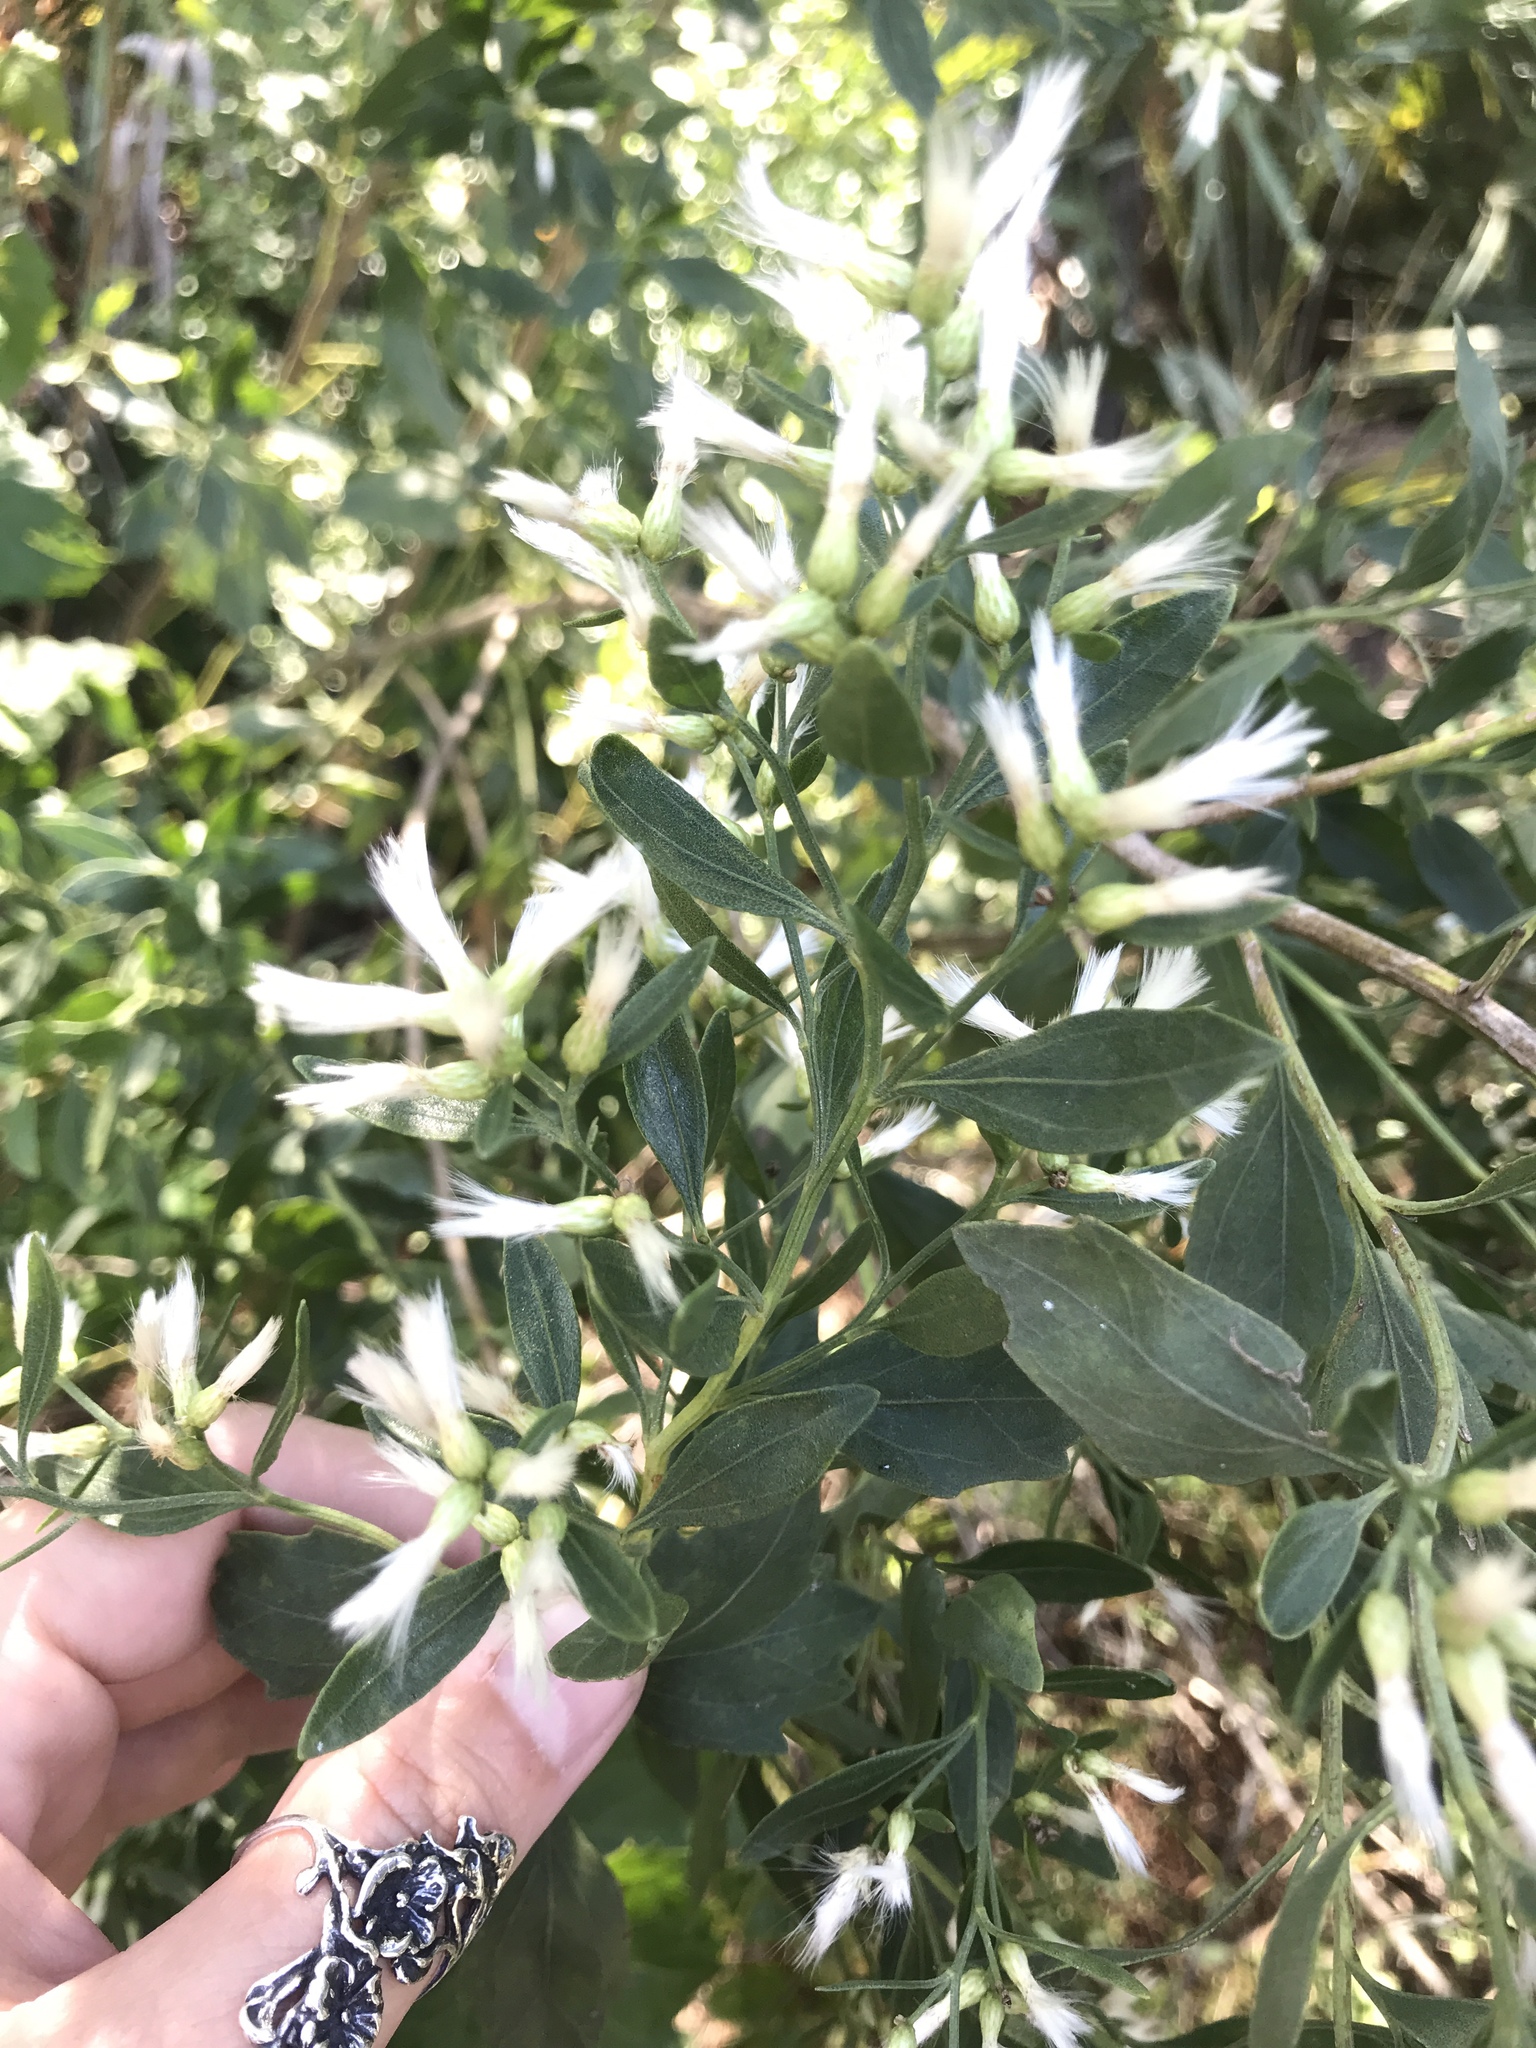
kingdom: Plantae
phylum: Tracheophyta
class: Magnoliopsida
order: Asterales
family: Asteraceae
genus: Baccharis
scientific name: Baccharis halimifolia
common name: Eastern baccharis
